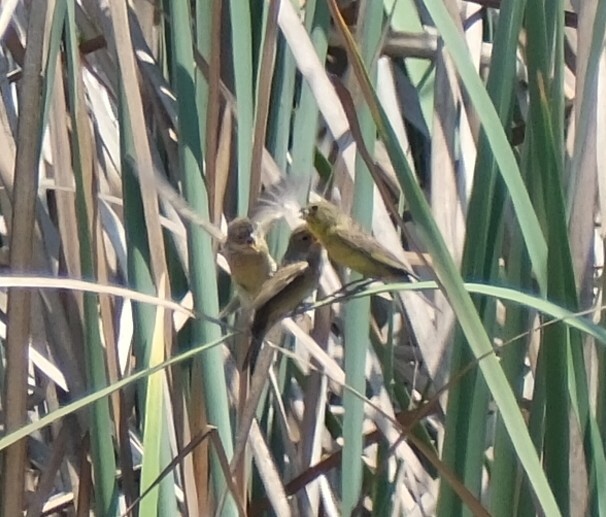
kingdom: Animalia
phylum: Chordata
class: Aves
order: Passeriformes
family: Thraupidae
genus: Sicalis
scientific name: Sicalis luteola
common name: Grassland yellow-finch
